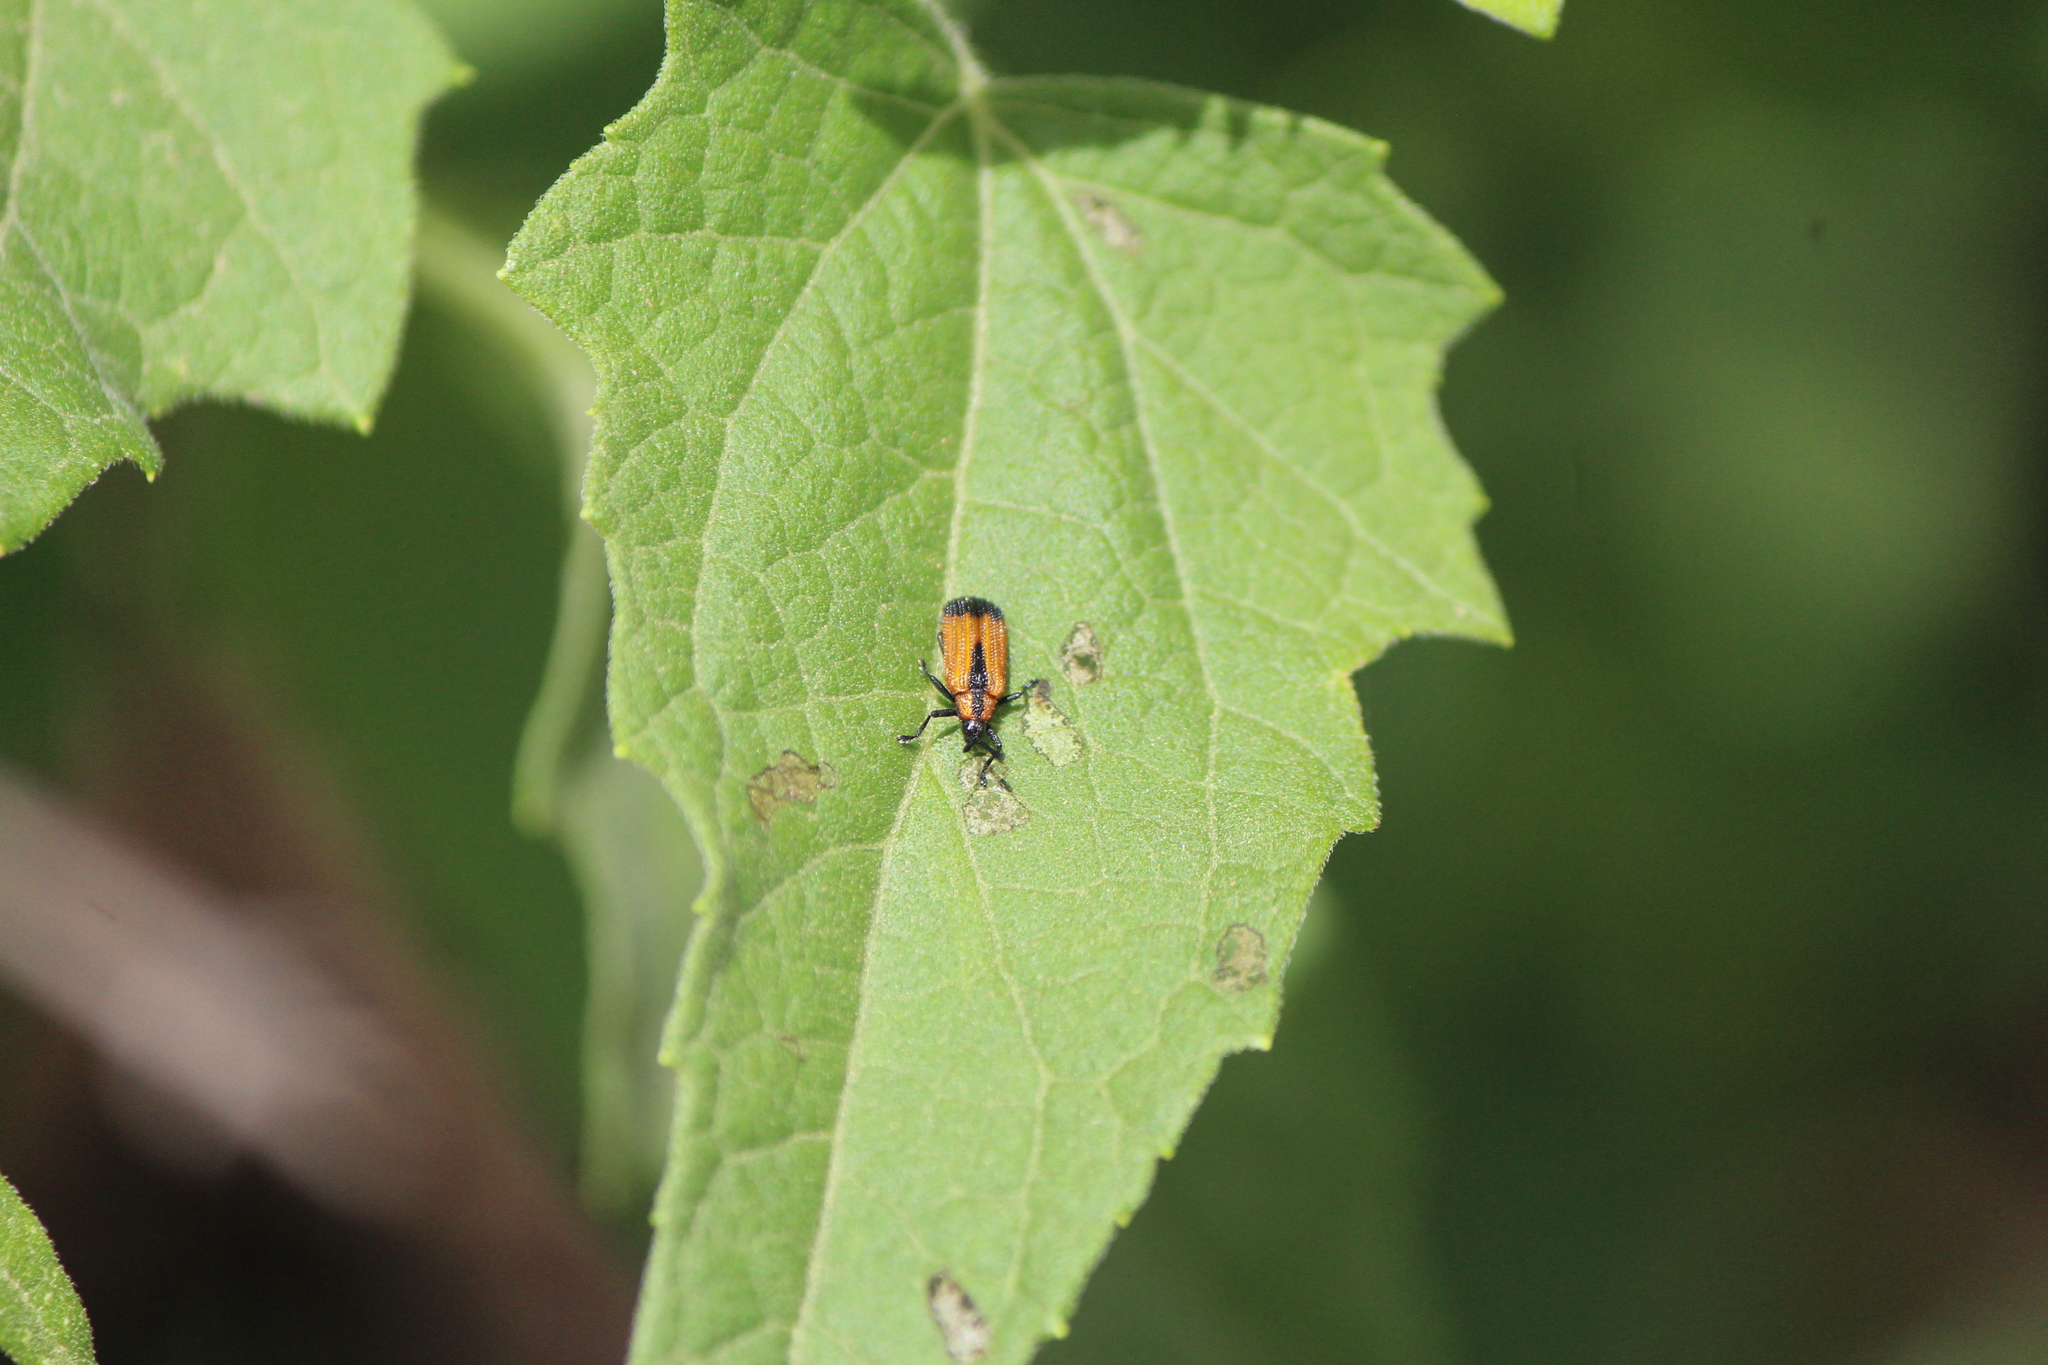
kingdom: Animalia
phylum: Arthropoda
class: Insecta
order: Coleoptera
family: Chrysomelidae
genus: Pentispa
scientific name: Pentispa melanura
